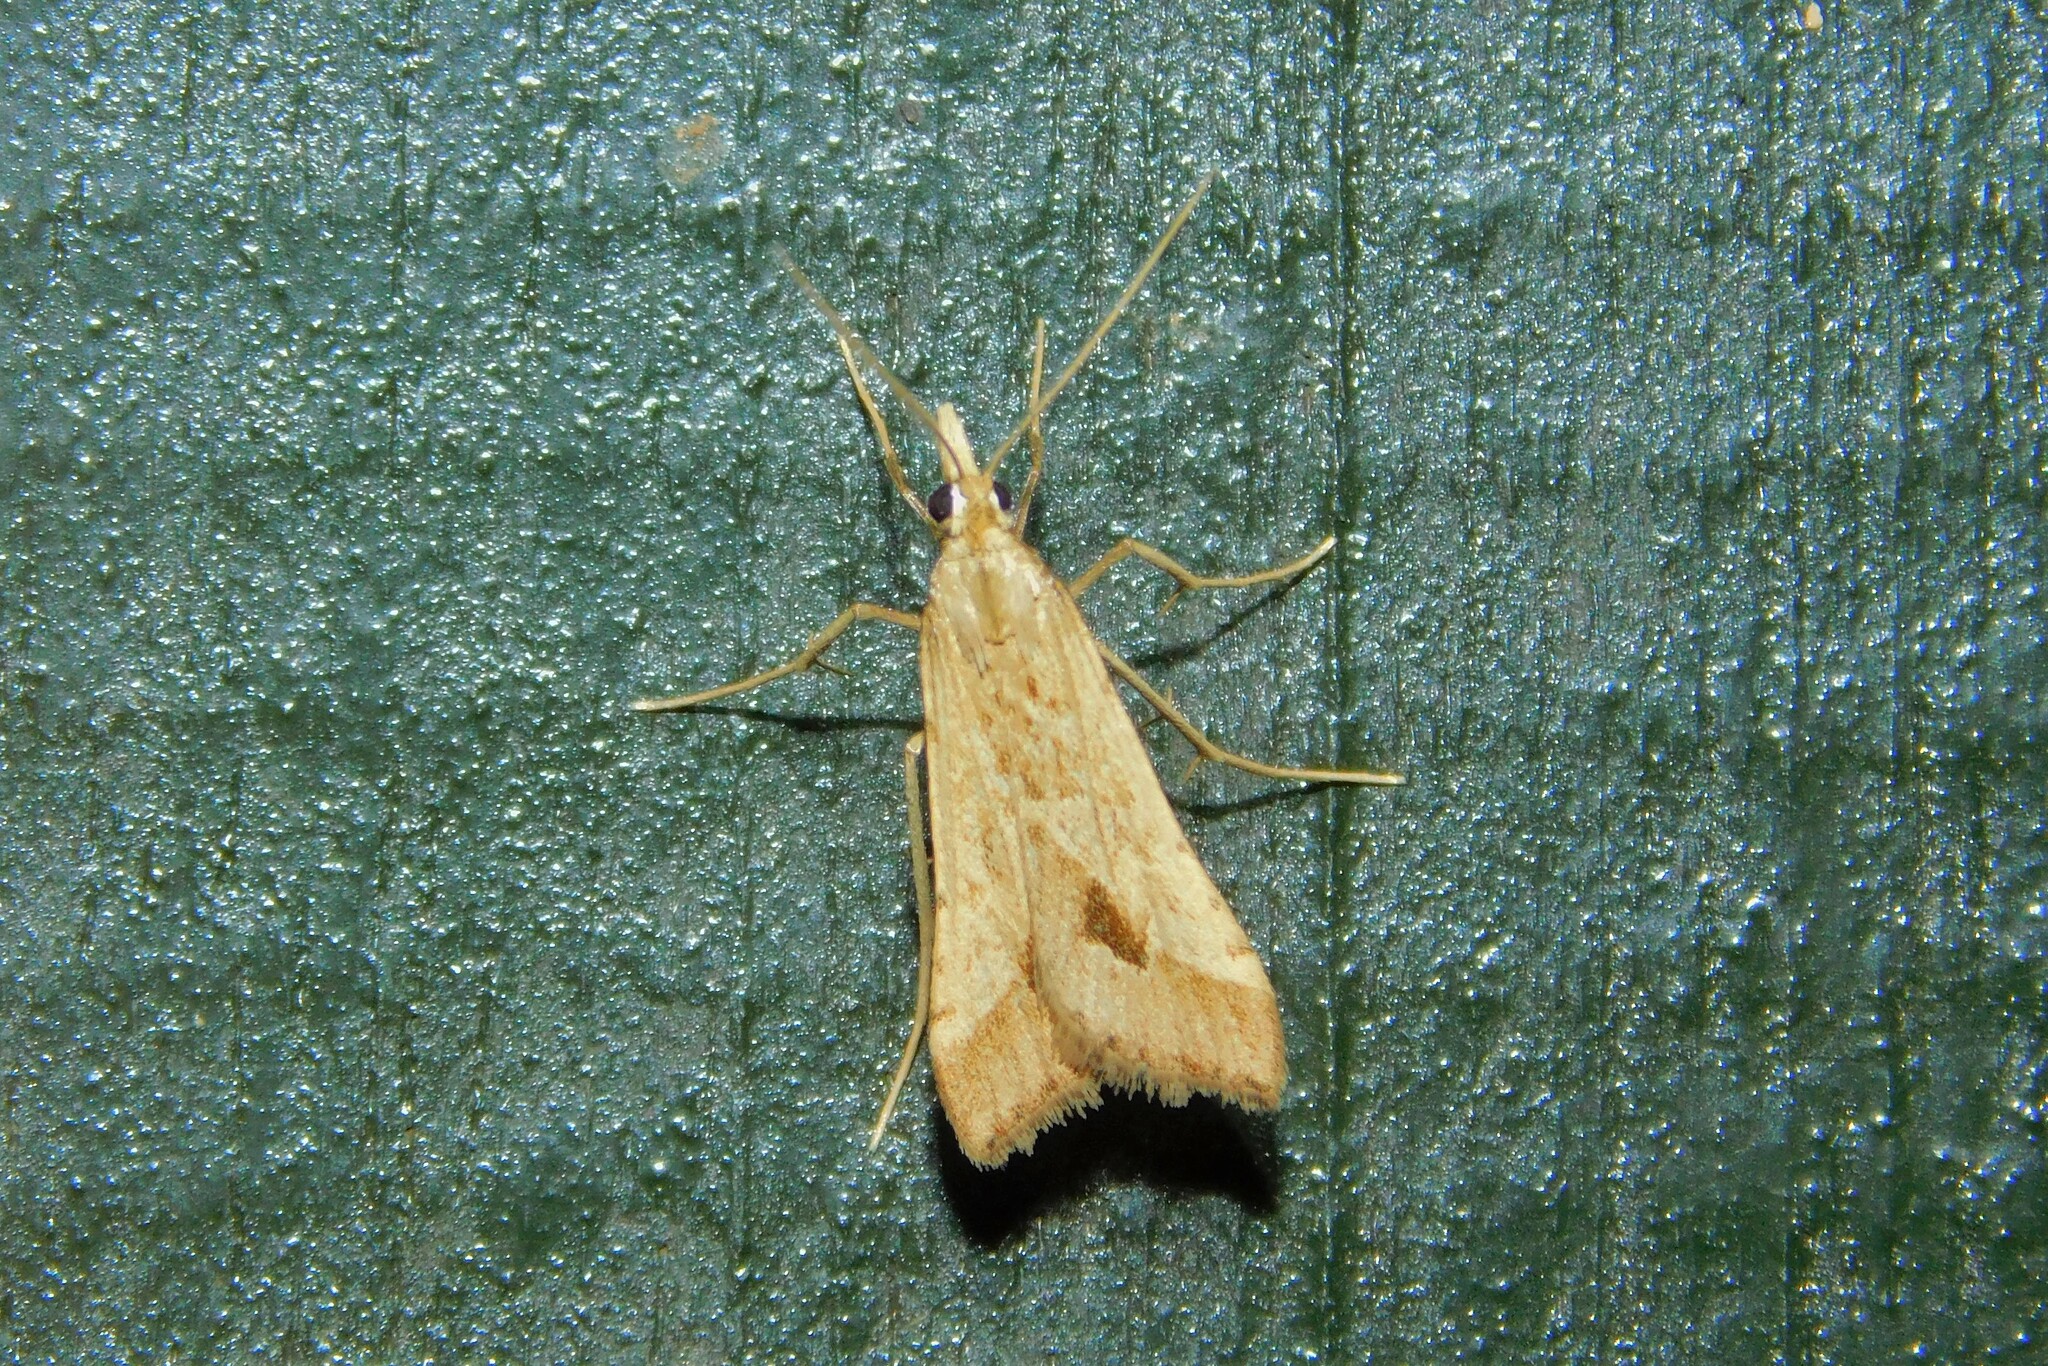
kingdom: Animalia
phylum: Arthropoda
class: Insecta
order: Lepidoptera
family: Crambidae
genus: Diasemia
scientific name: Diasemia monostigma
